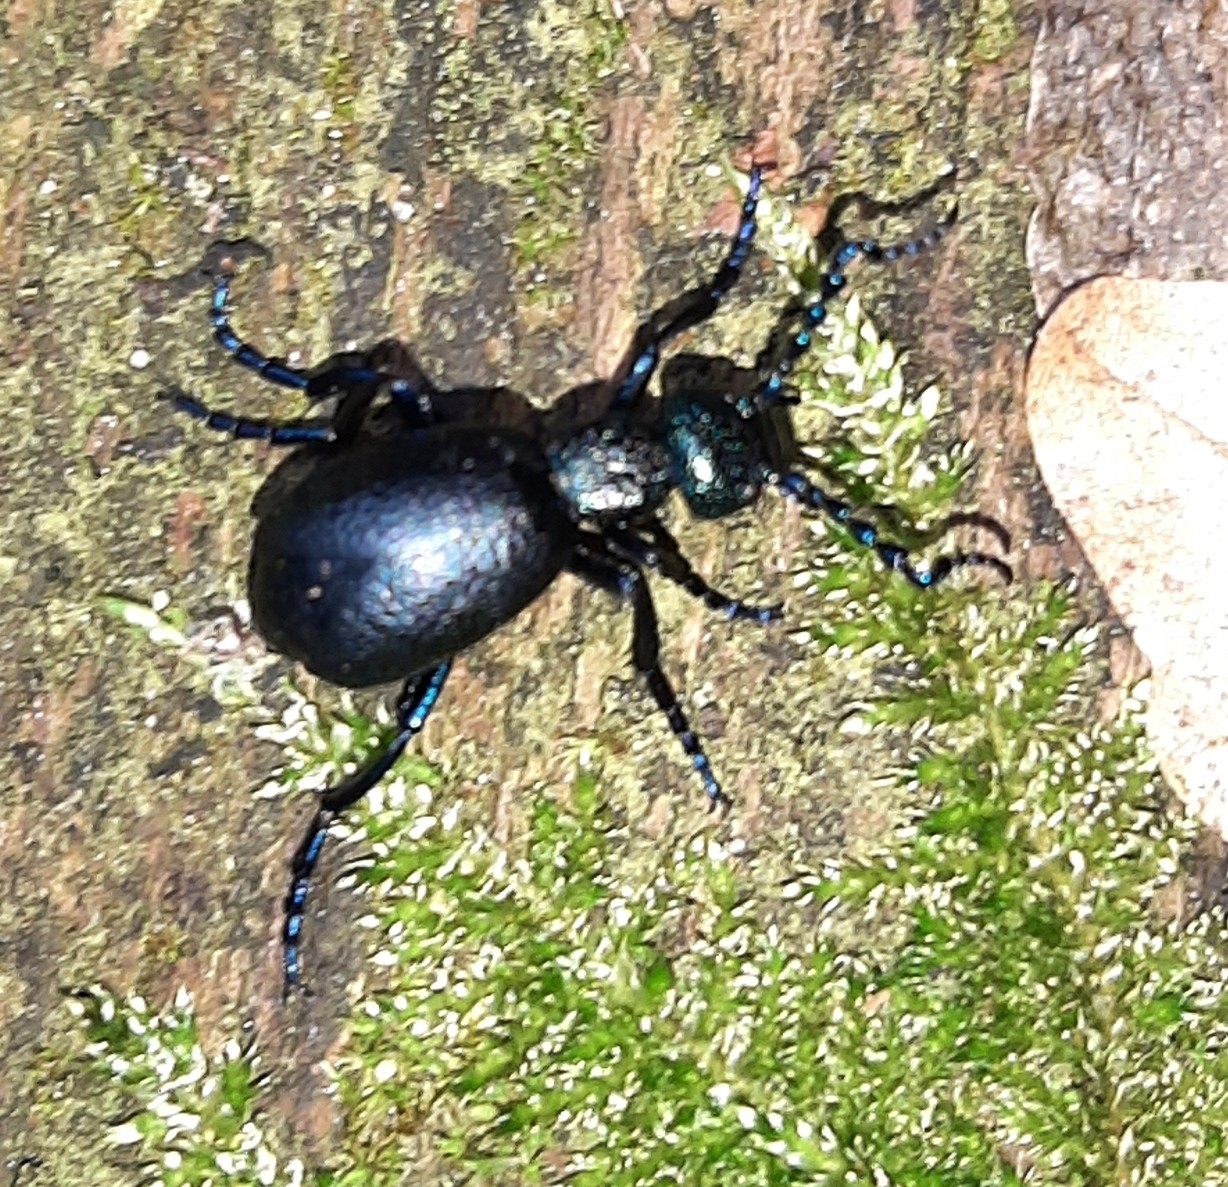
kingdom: Animalia
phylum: Arthropoda
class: Insecta
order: Coleoptera
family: Meloidae
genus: Meloe
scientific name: Meloe proscarabaeus
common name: Black oil-beetle
